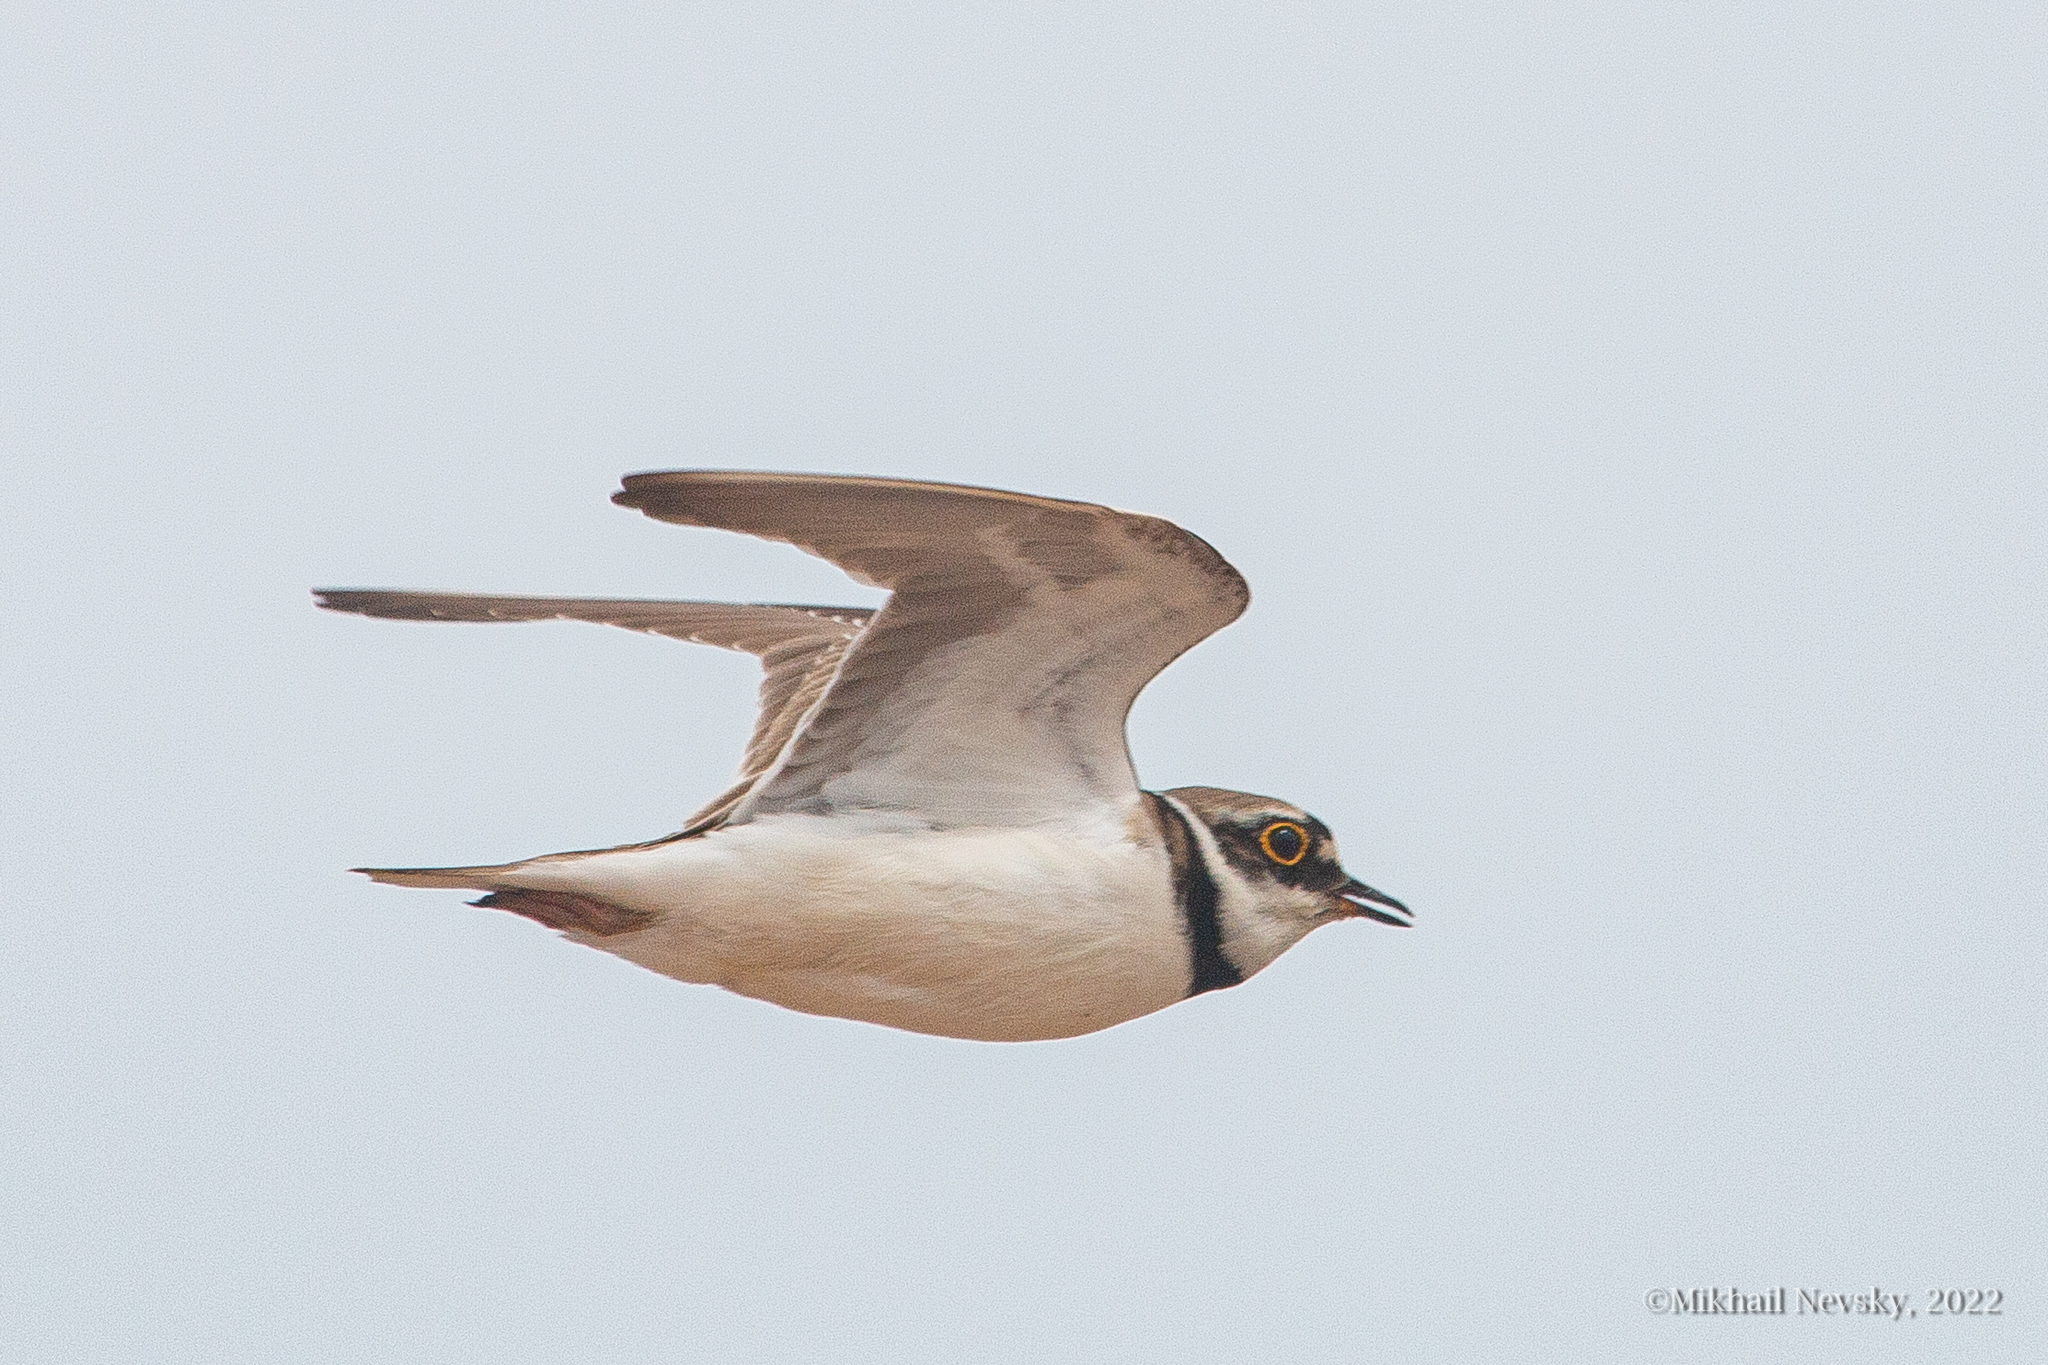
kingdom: Animalia
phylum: Chordata
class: Aves
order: Charadriiformes
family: Charadriidae
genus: Charadrius
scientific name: Charadrius dubius
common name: Little ringed plover
